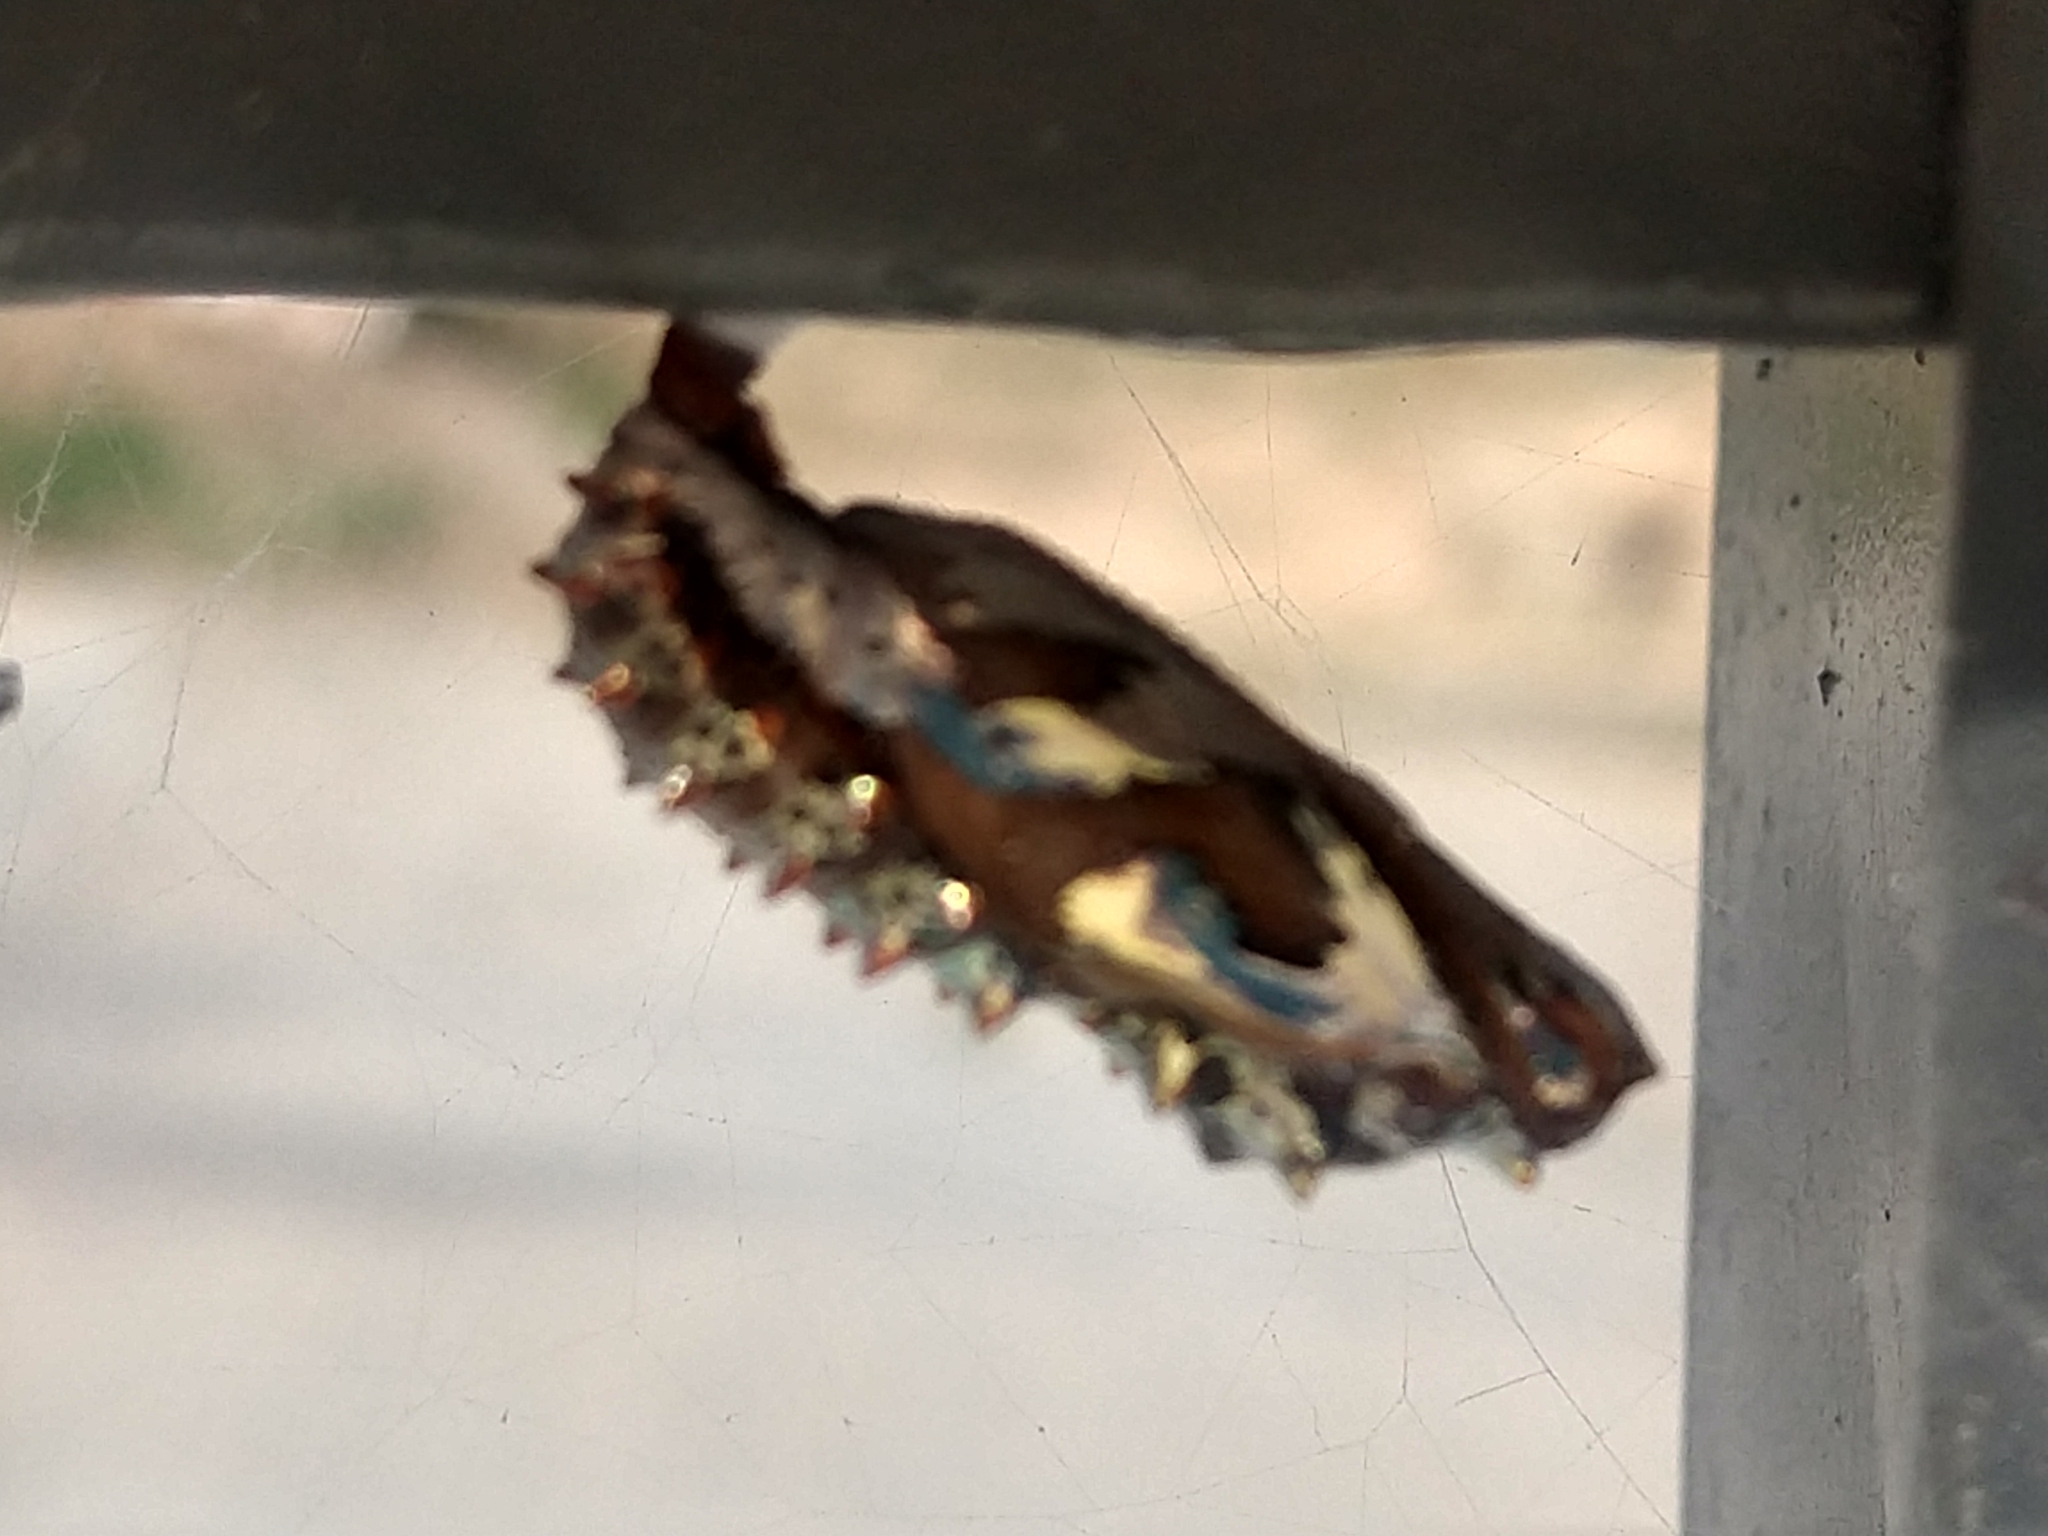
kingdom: Animalia
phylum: Arthropoda
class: Insecta
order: Lepidoptera
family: Nymphalidae
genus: Euptoieta
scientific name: Euptoieta hegesia
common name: Mexican fritillary
